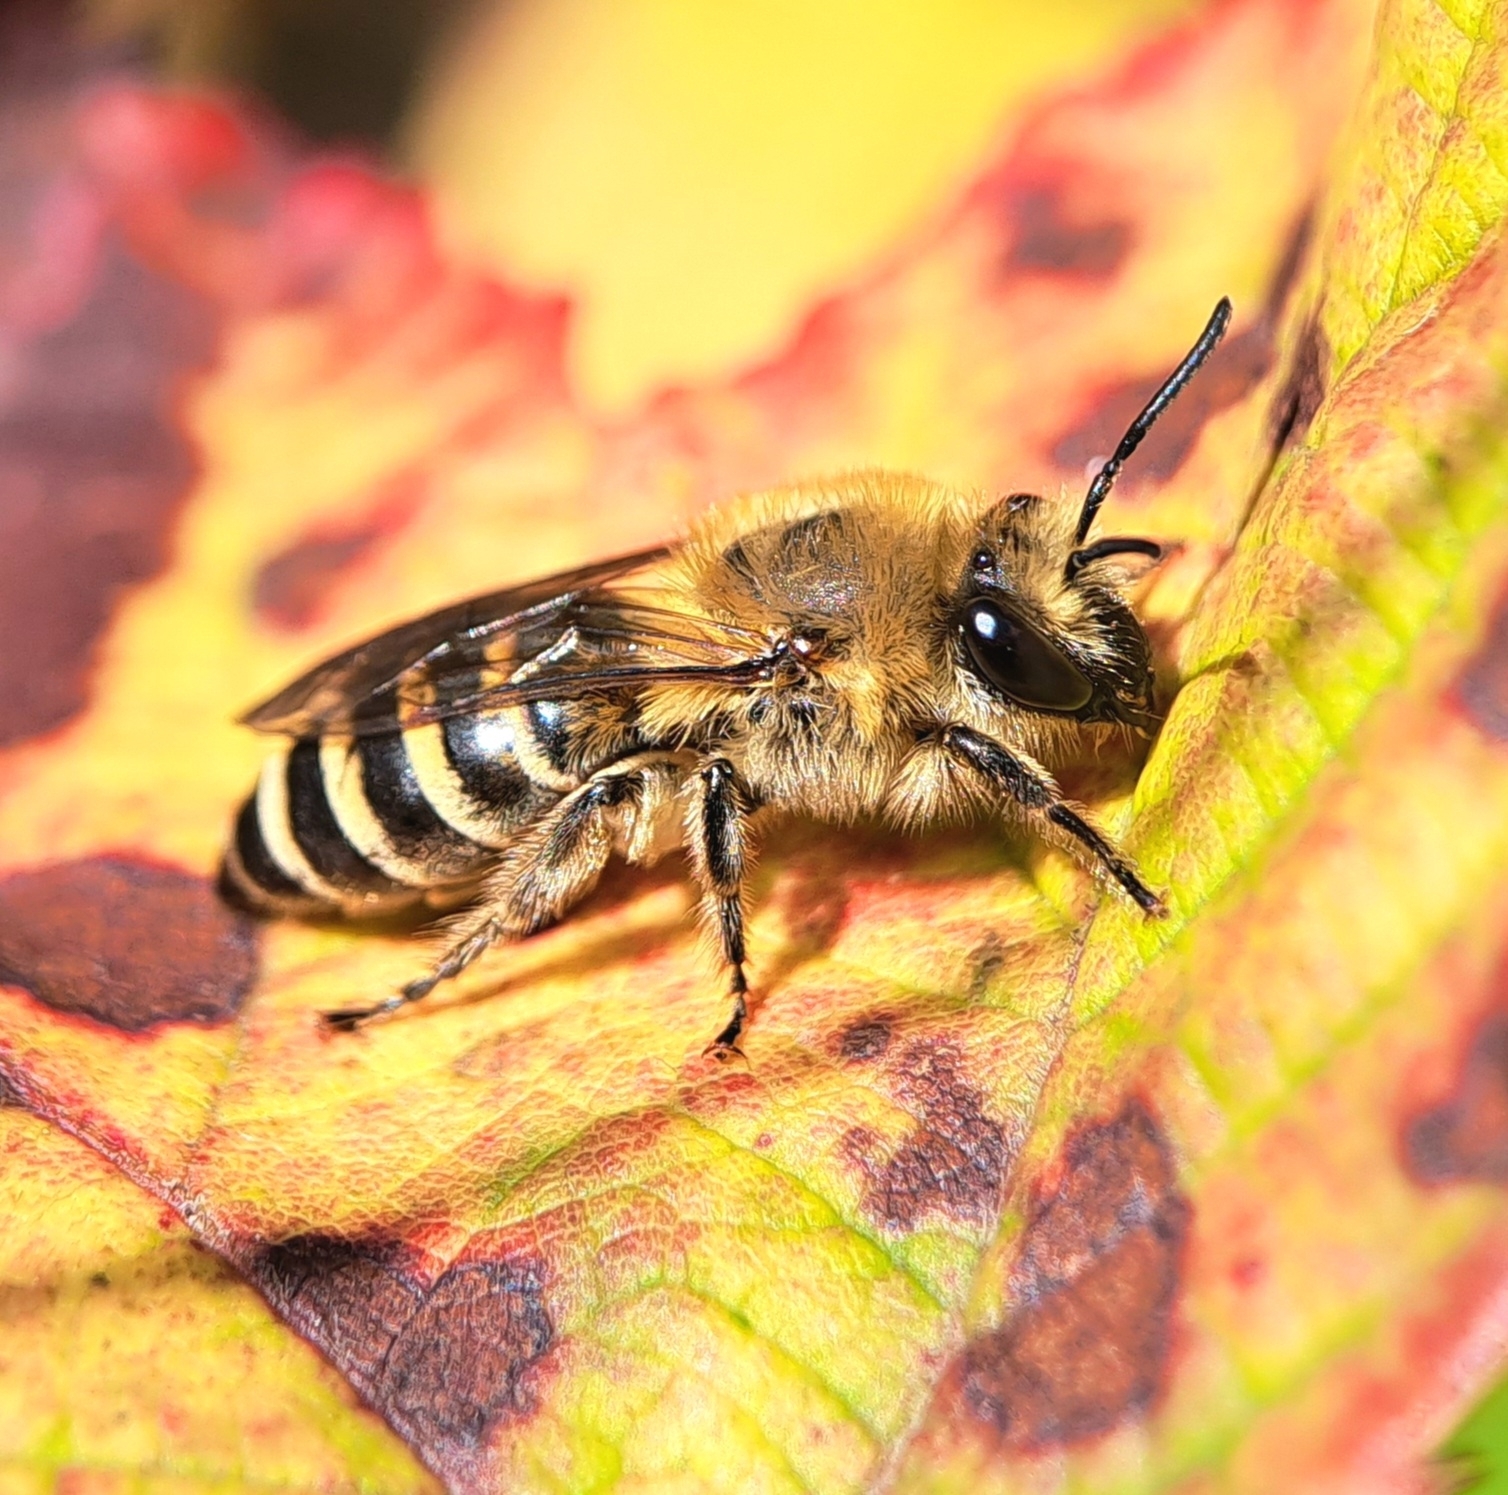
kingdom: Animalia
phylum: Arthropoda
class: Insecta
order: Hymenoptera
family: Colletidae
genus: Colletes
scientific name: Colletes hederae
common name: Ivy bee
